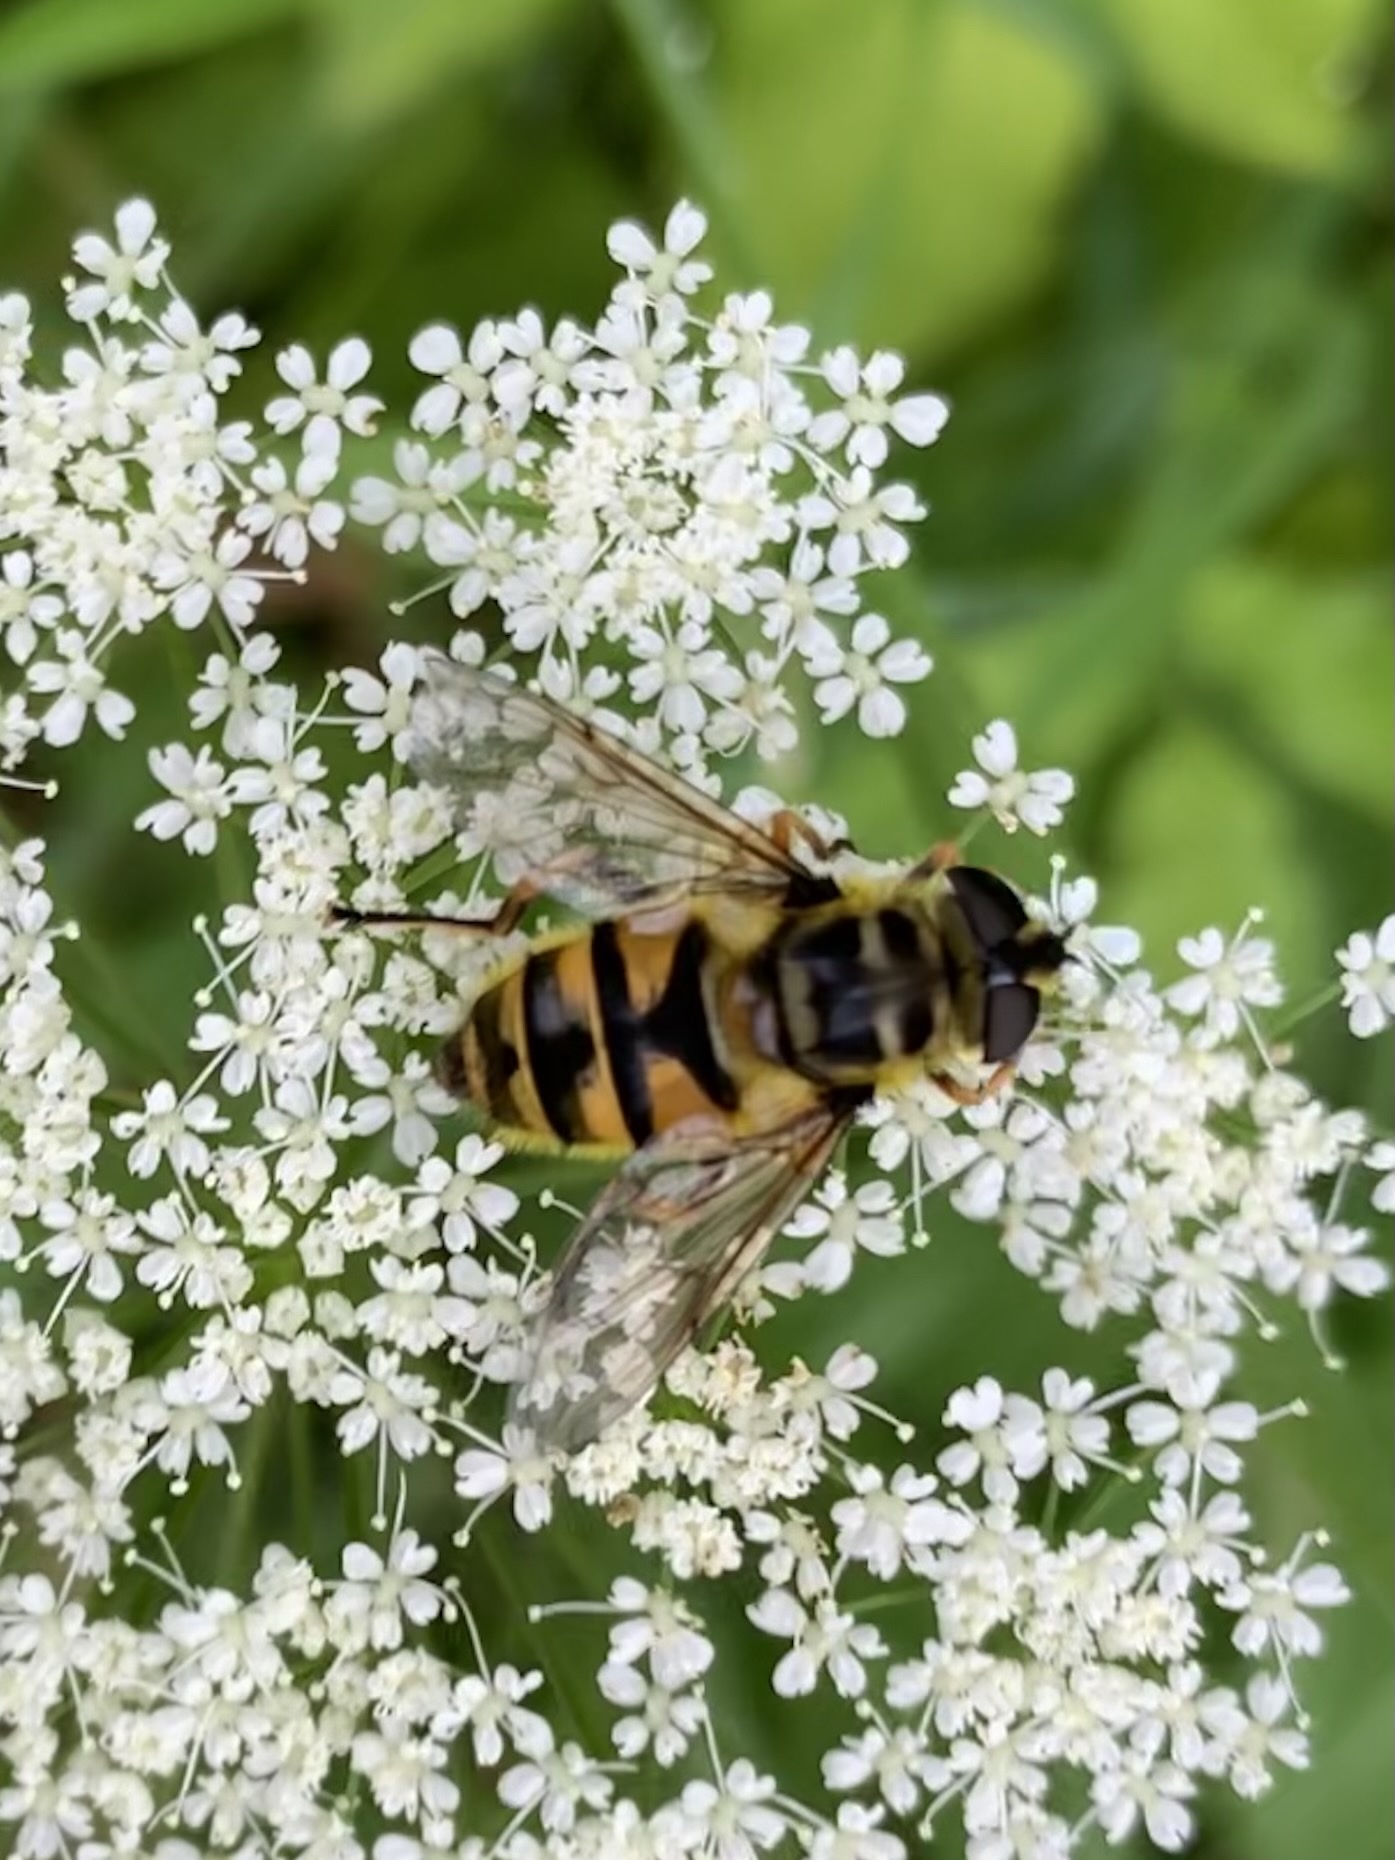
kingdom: Animalia
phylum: Arthropoda
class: Insecta
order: Diptera
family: Syrphidae
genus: Myathropa
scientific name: Myathropa florea
